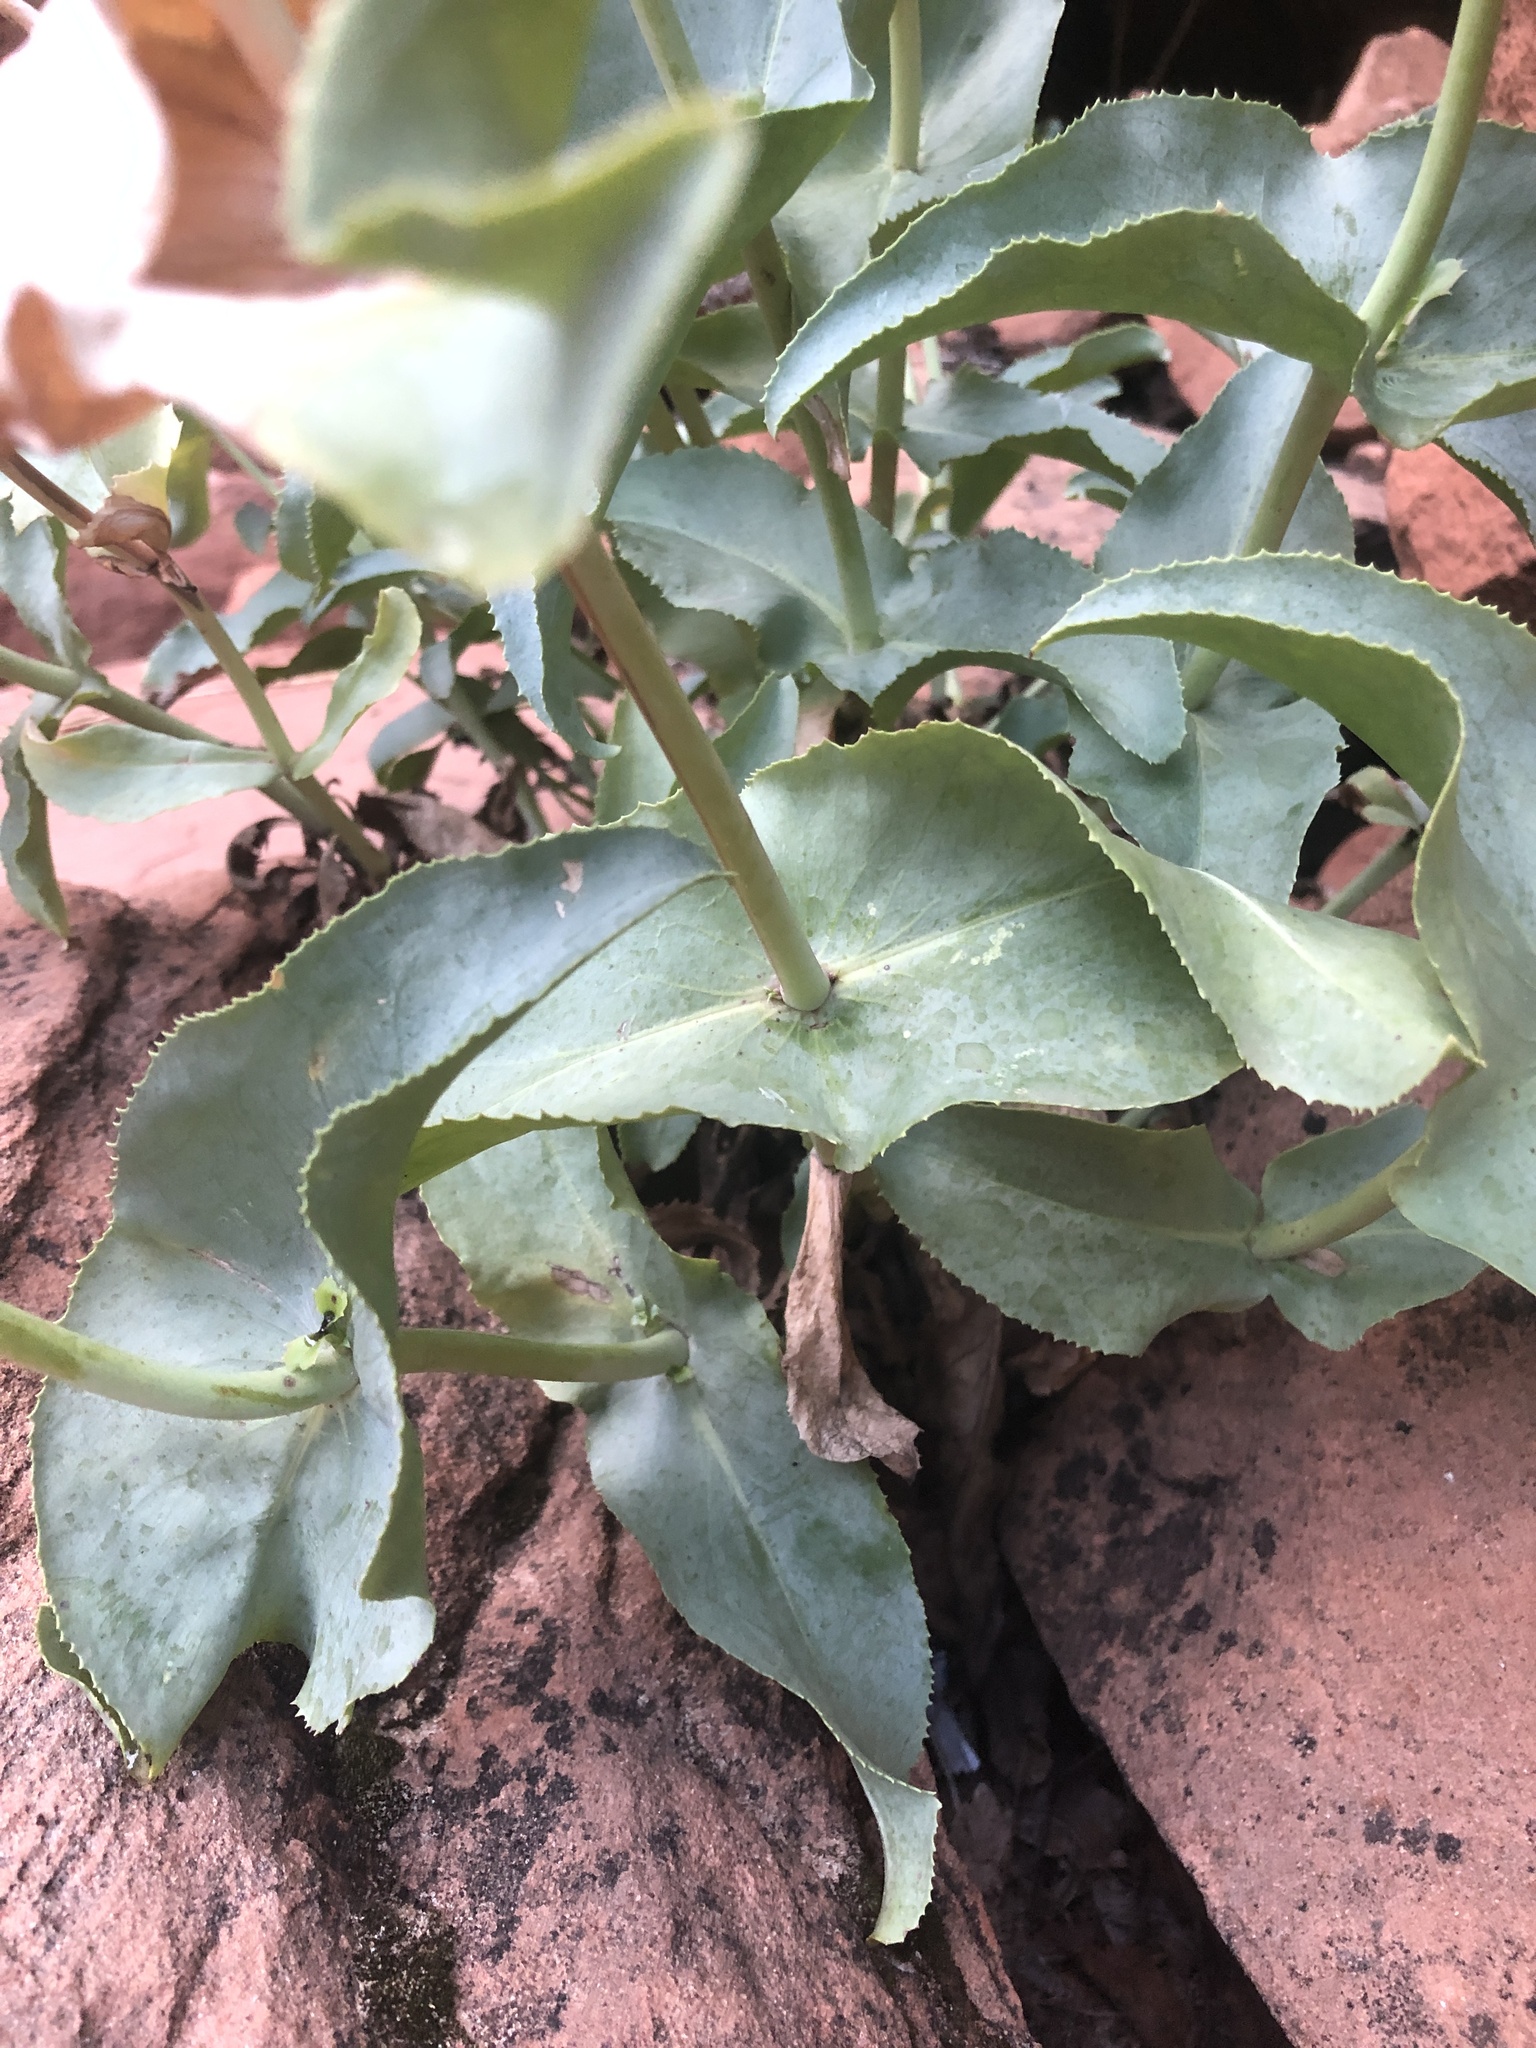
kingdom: Plantae
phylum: Tracheophyta
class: Magnoliopsida
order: Lamiales
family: Plantaginaceae
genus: Penstemon
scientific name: Penstemon palmeri
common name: Palmer penstemon
